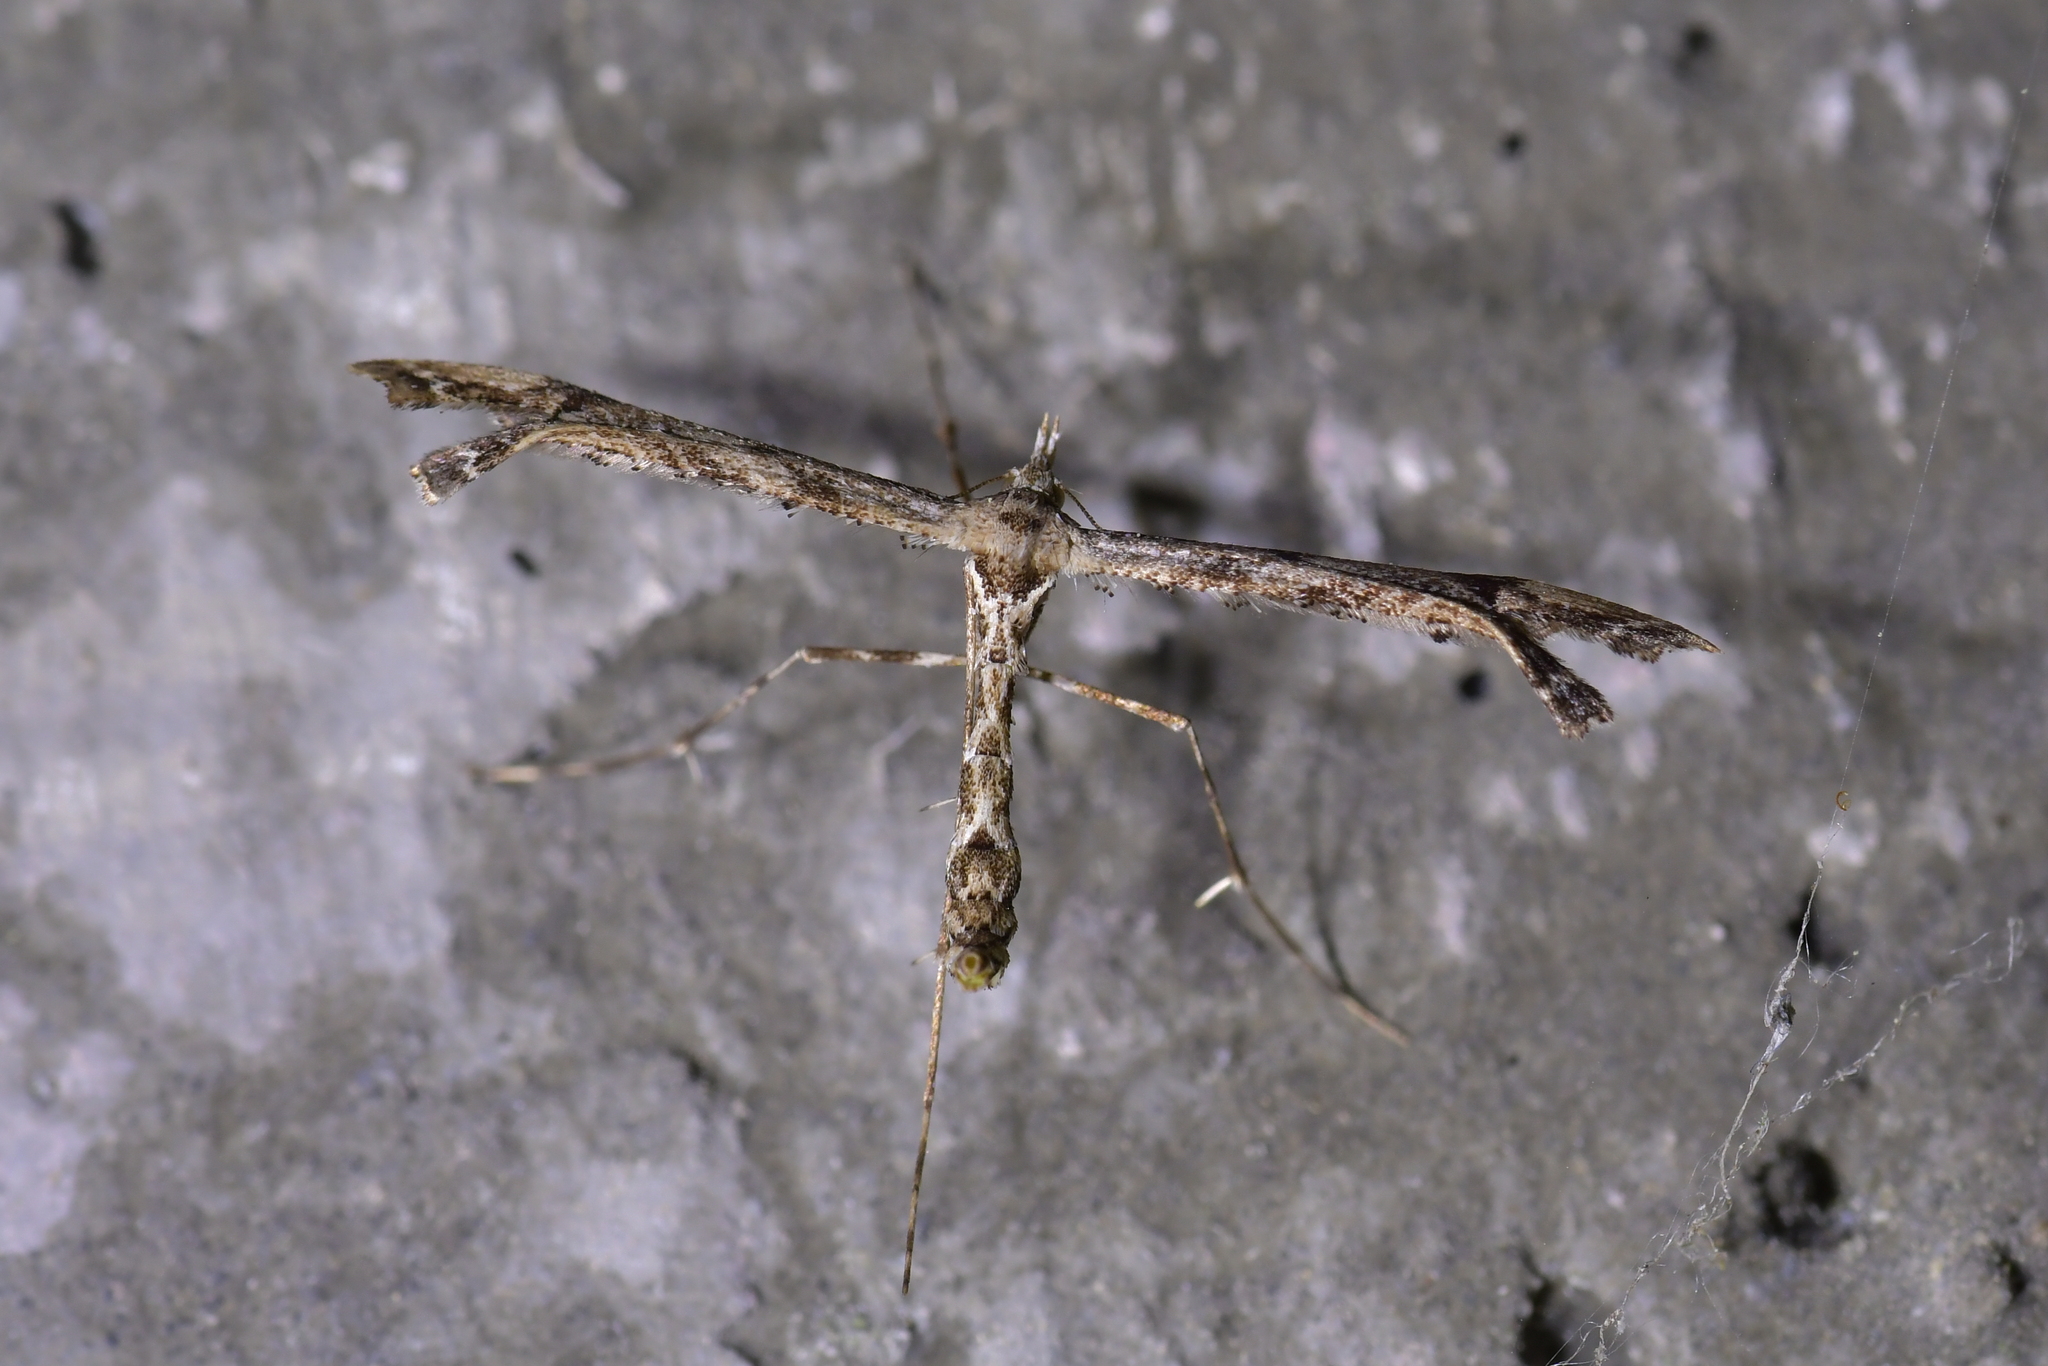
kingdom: Animalia
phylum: Arthropoda
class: Insecta
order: Lepidoptera
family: Pterophoridae
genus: Amblyptilia
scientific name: Amblyptilia repletalis
